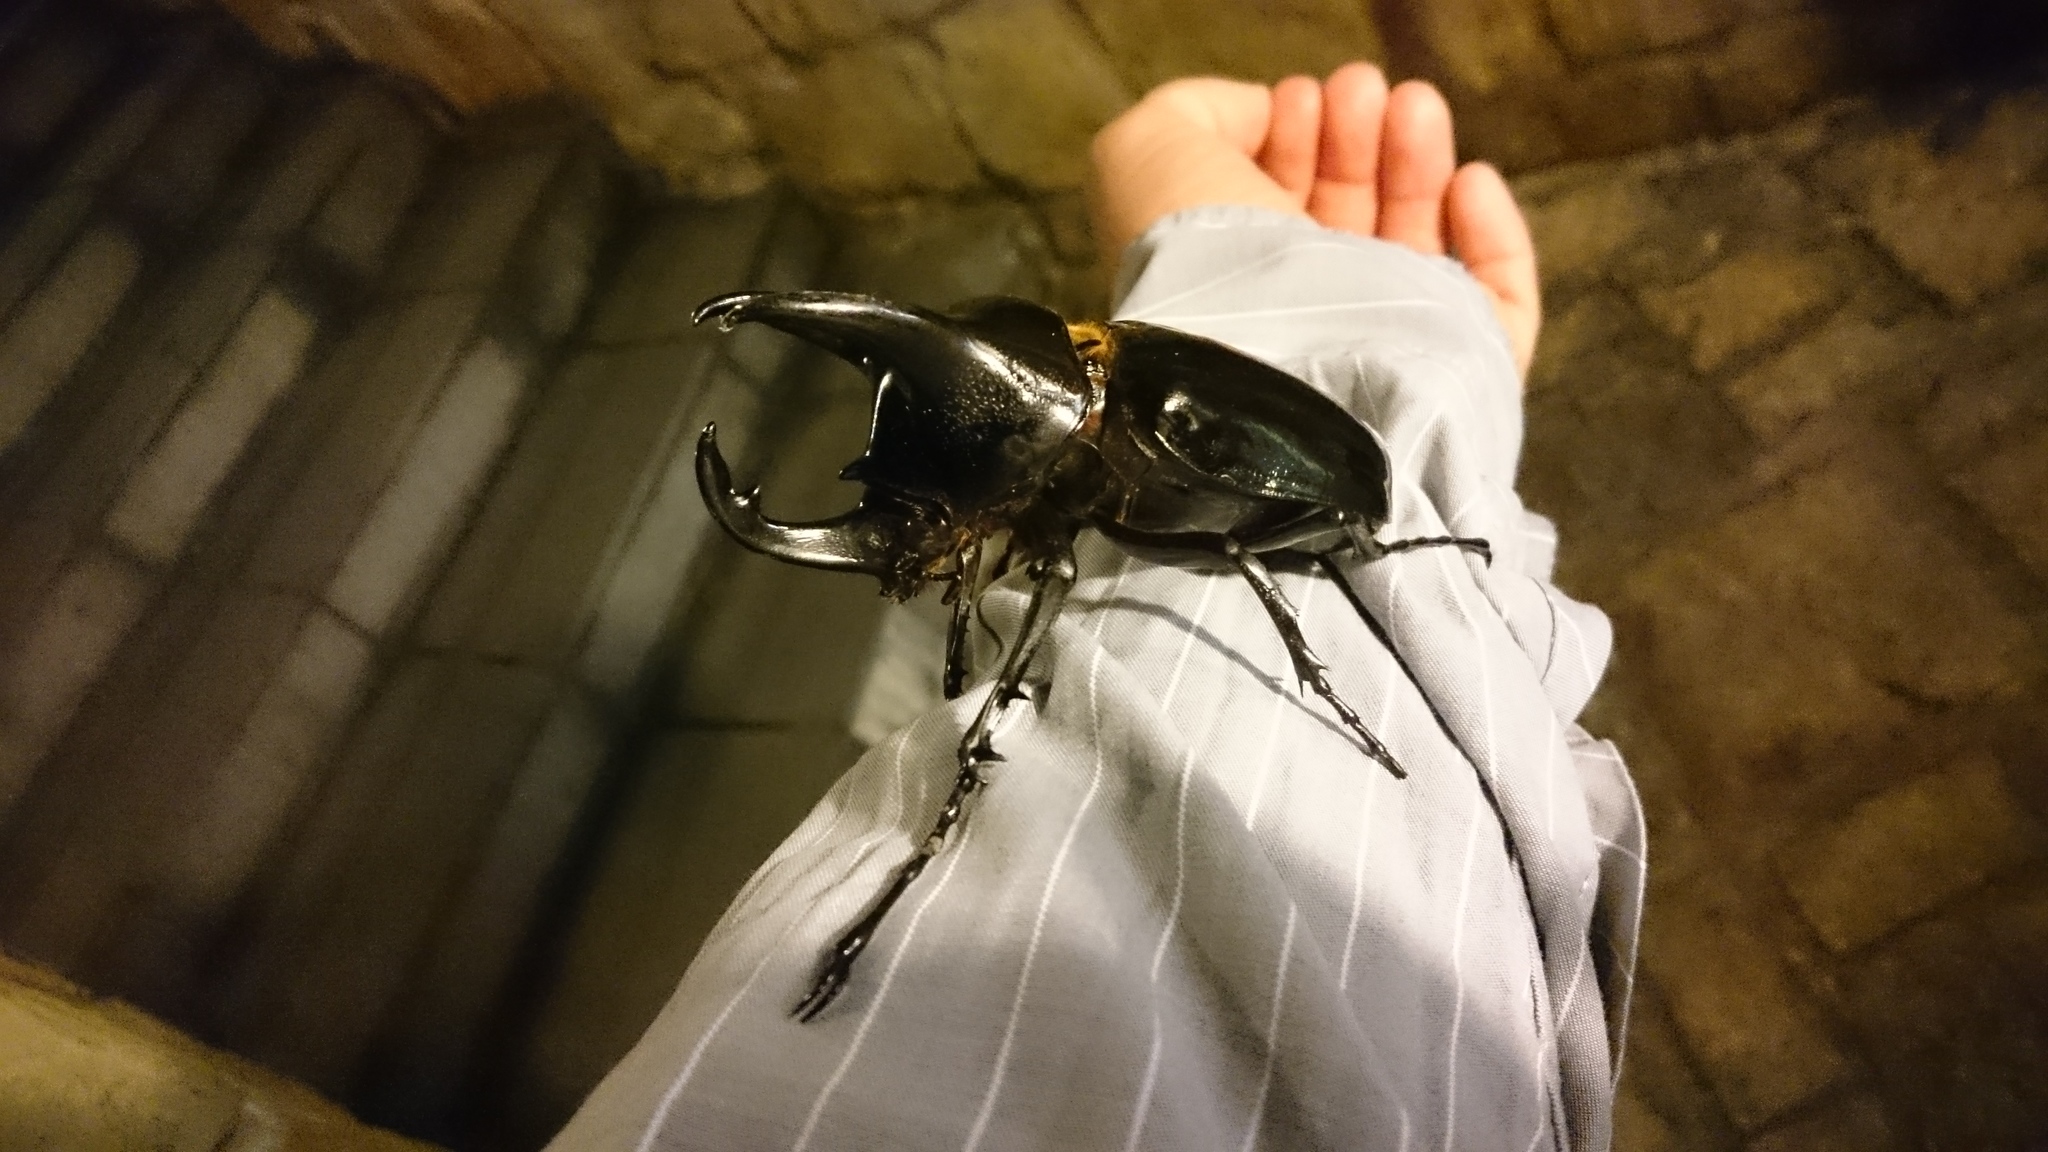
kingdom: Animalia
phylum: Arthropoda
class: Insecta
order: Coleoptera
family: Scarabaeidae
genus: Chalcosoma
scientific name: Chalcosoma chiron
